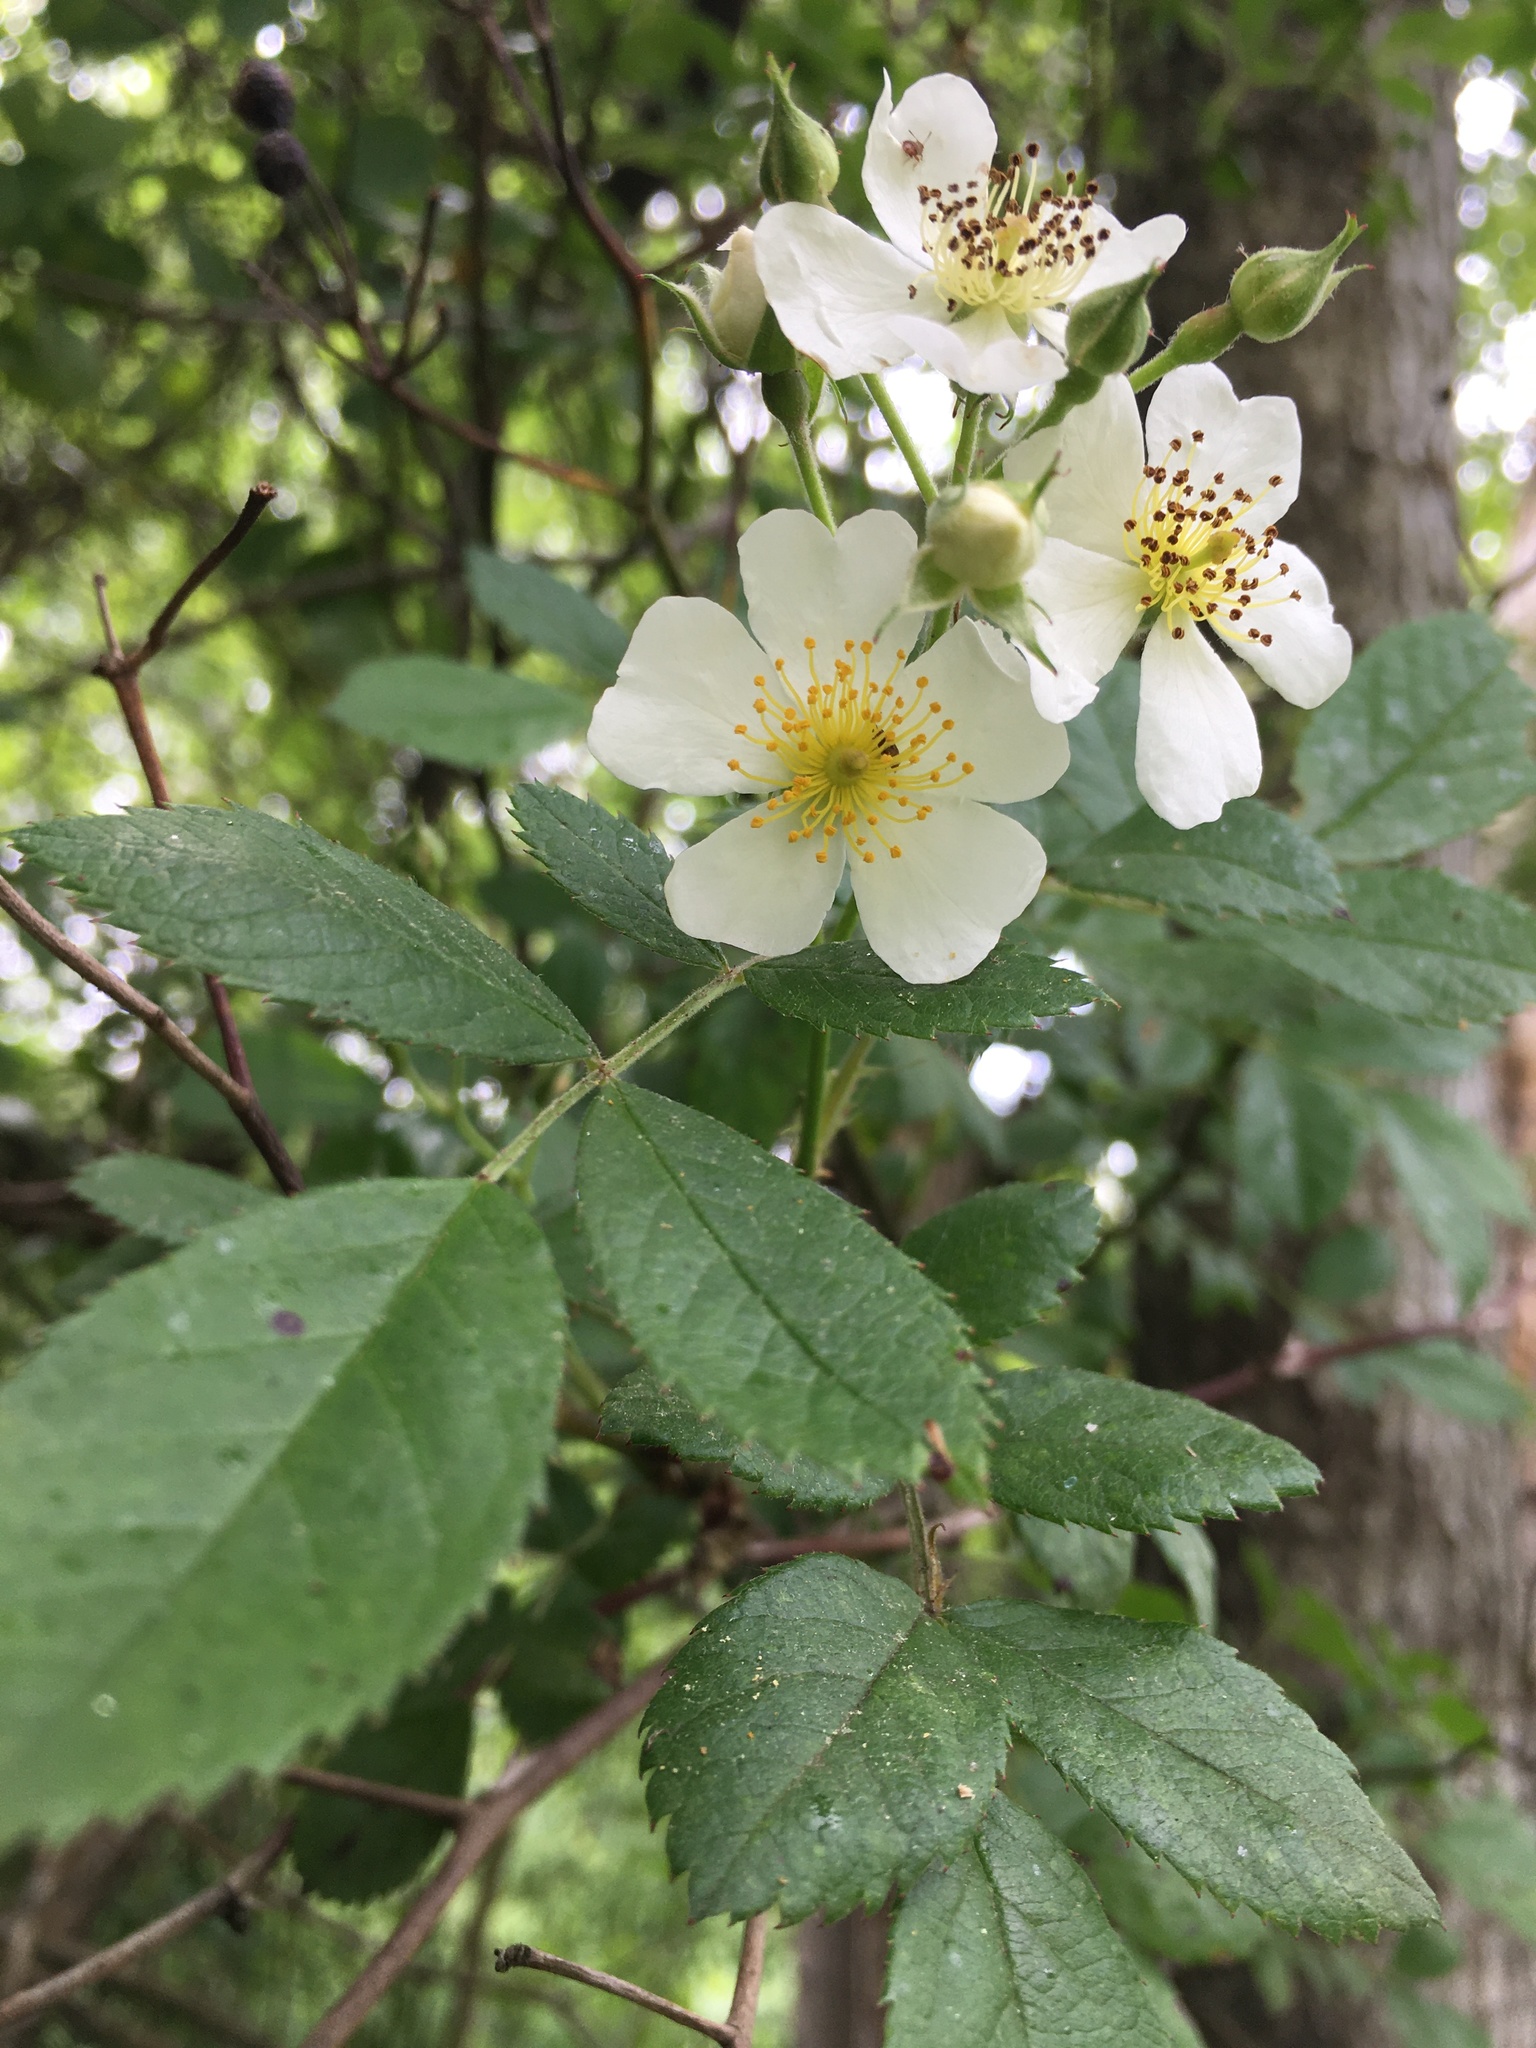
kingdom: Plantae
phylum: Tracheophyta
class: Magnoliopsida
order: Rosales
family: Rosaceae
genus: Rosa
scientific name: Rosa multiflora
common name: Multiflora rose
